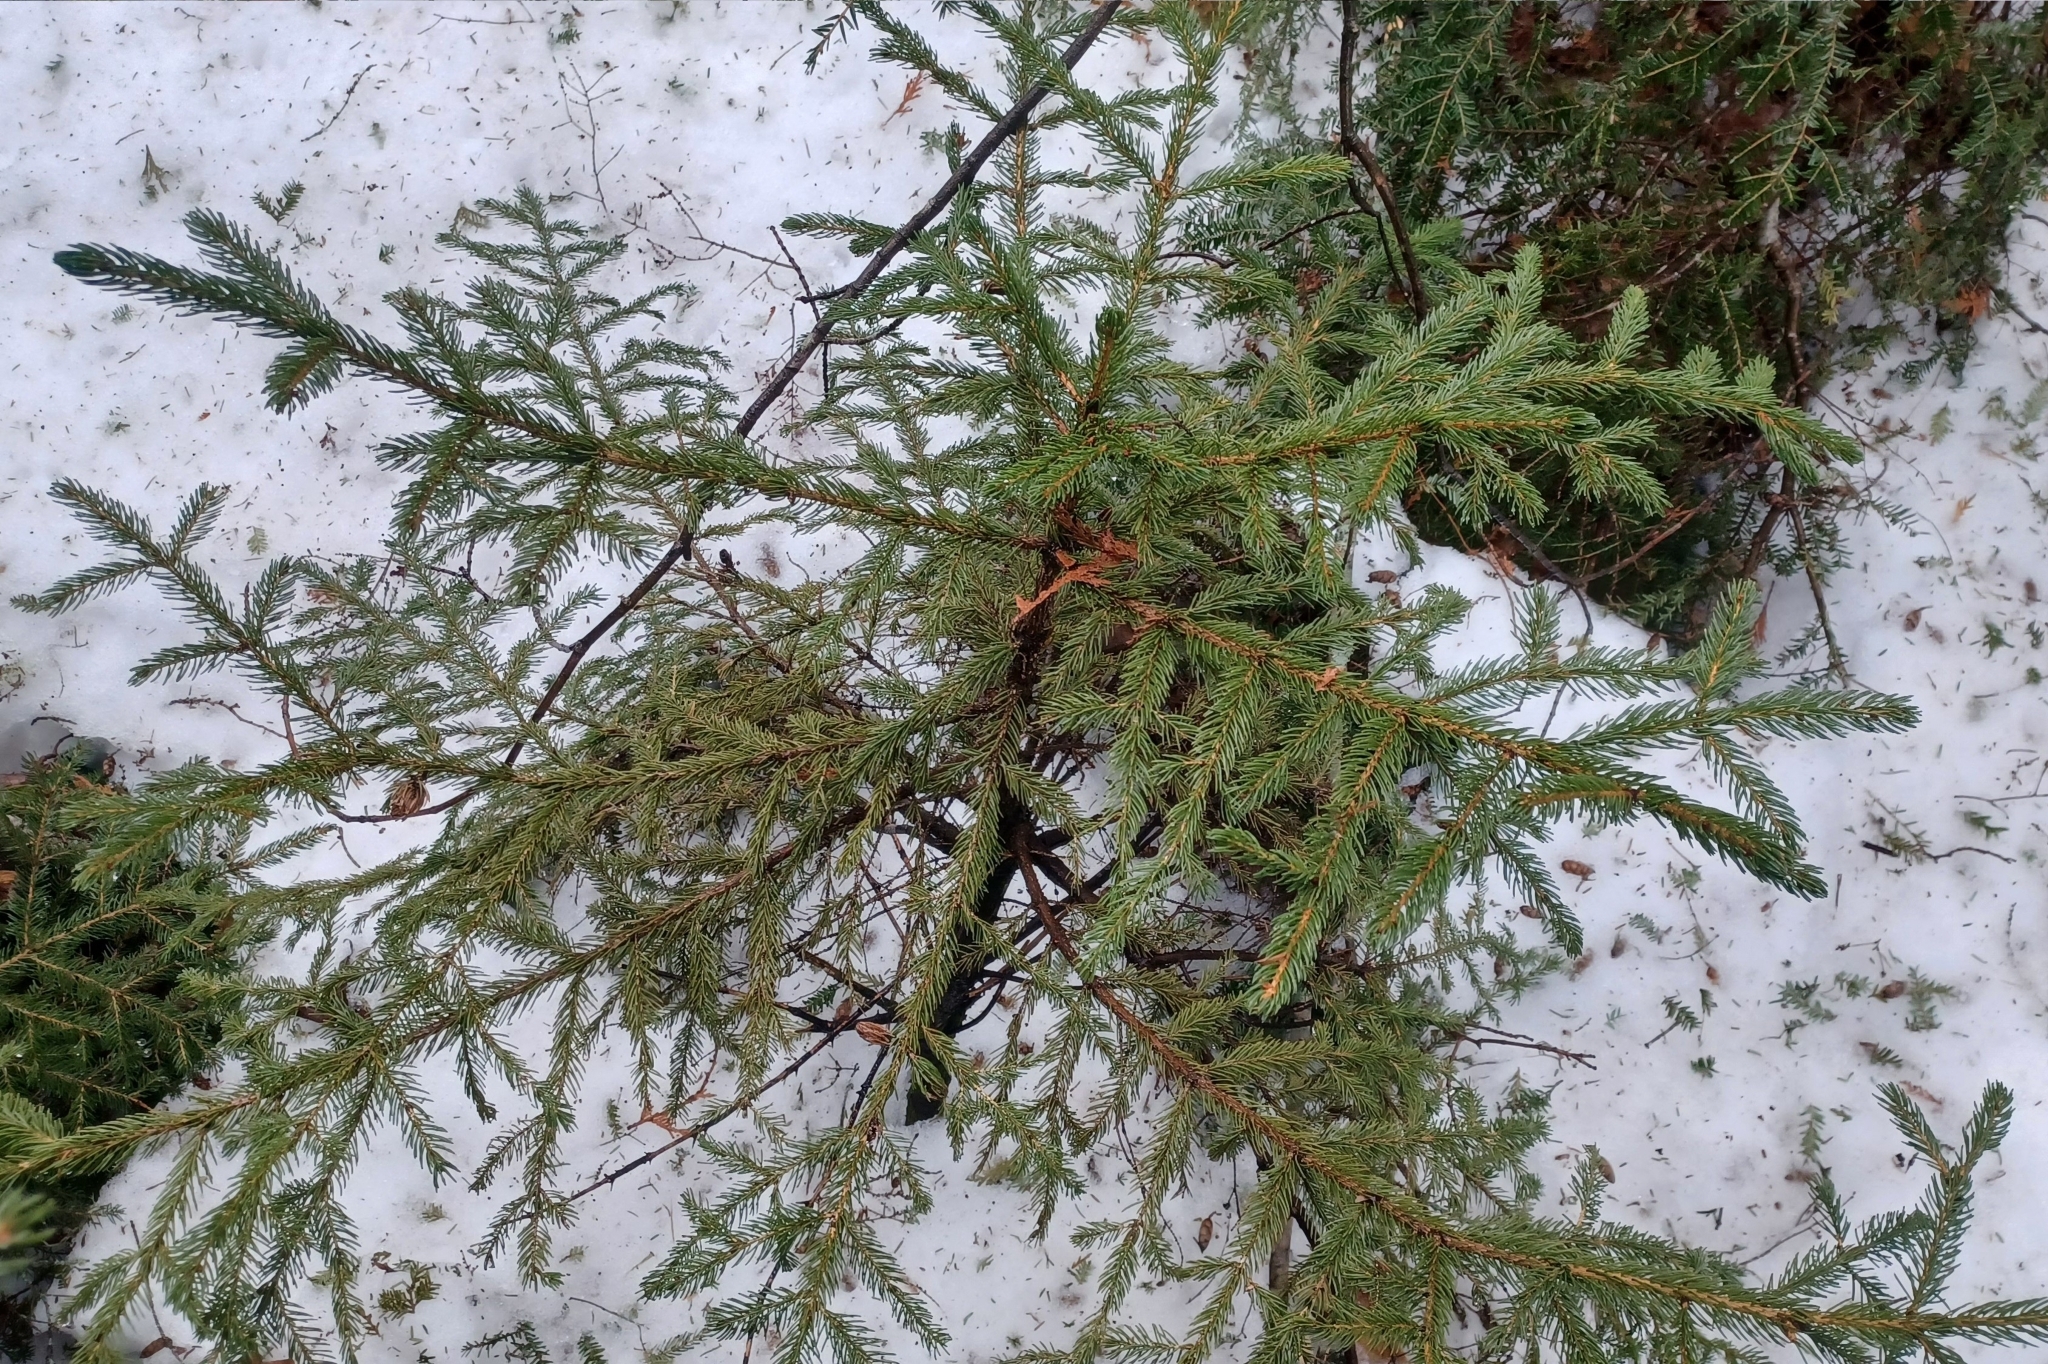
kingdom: Plantae
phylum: Tracheophyta
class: Pinopsida
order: Pinales
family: Pinaceae
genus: Picea
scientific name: Picea rubens
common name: Red spruce
